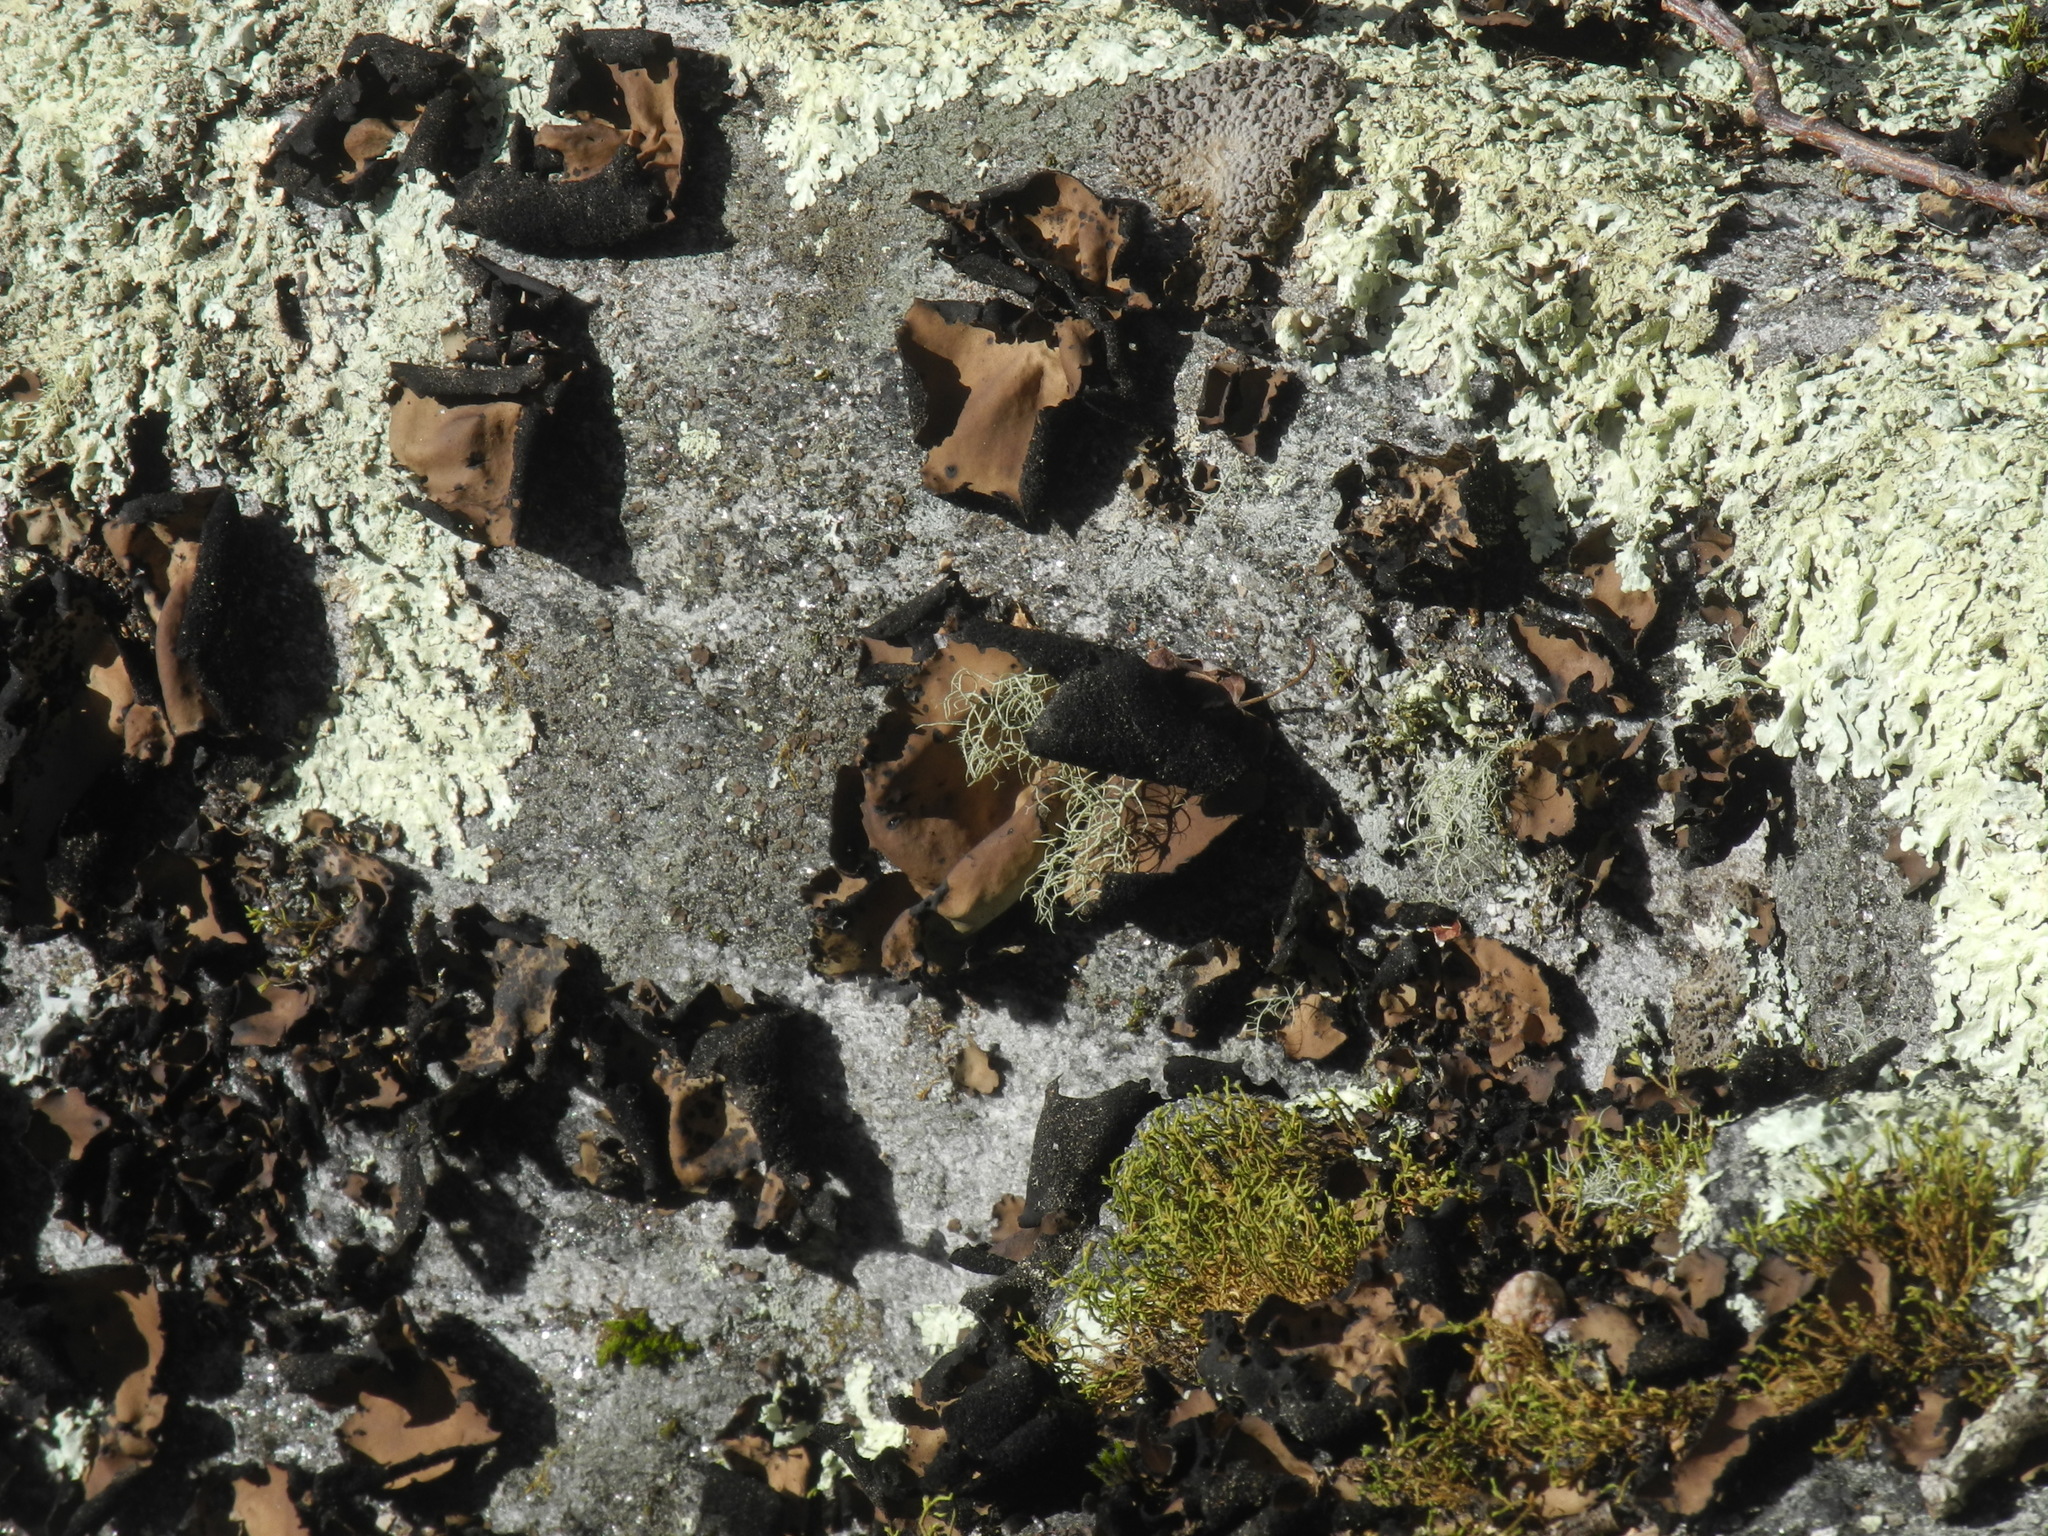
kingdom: Fungi
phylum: Ascomycota
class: Lecanoromycetes
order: Umbilicariales
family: Umbilicariaceae
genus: Umbilicaria
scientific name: Umbilicaria mammulata
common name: Smooth rock tripe
